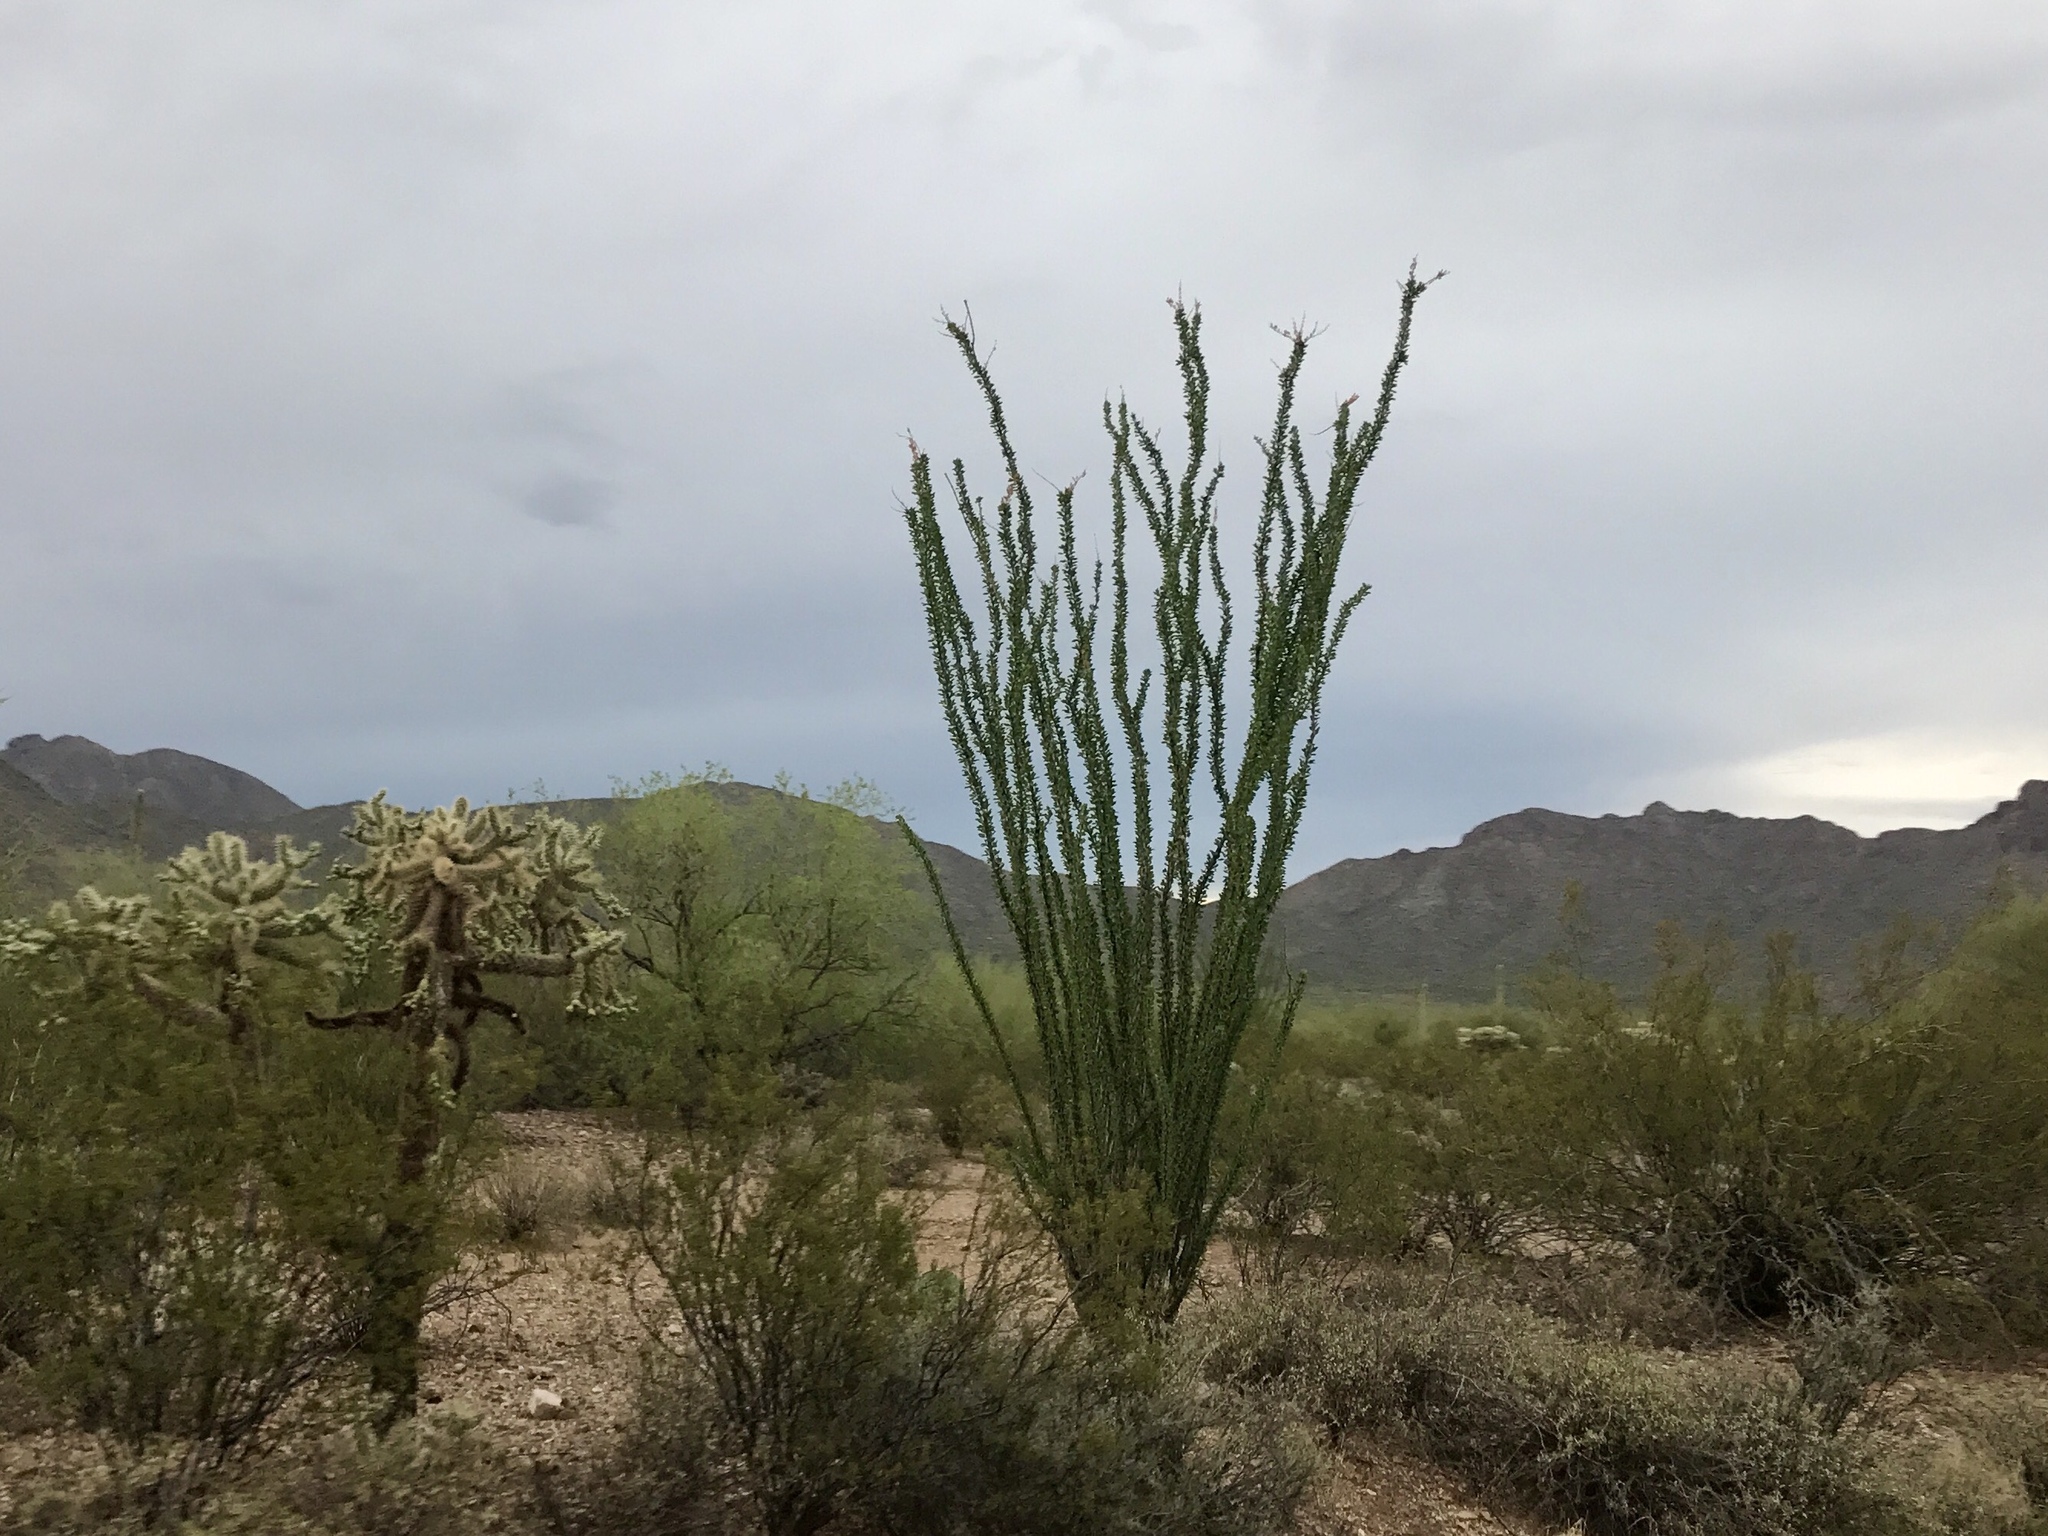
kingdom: Plantae
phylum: Tracheophyta
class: Magnoliopsida
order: Ericales
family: Fouquieriaceae
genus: Fouquieria
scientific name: Fouquieria splendens
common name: Vine-cactus
